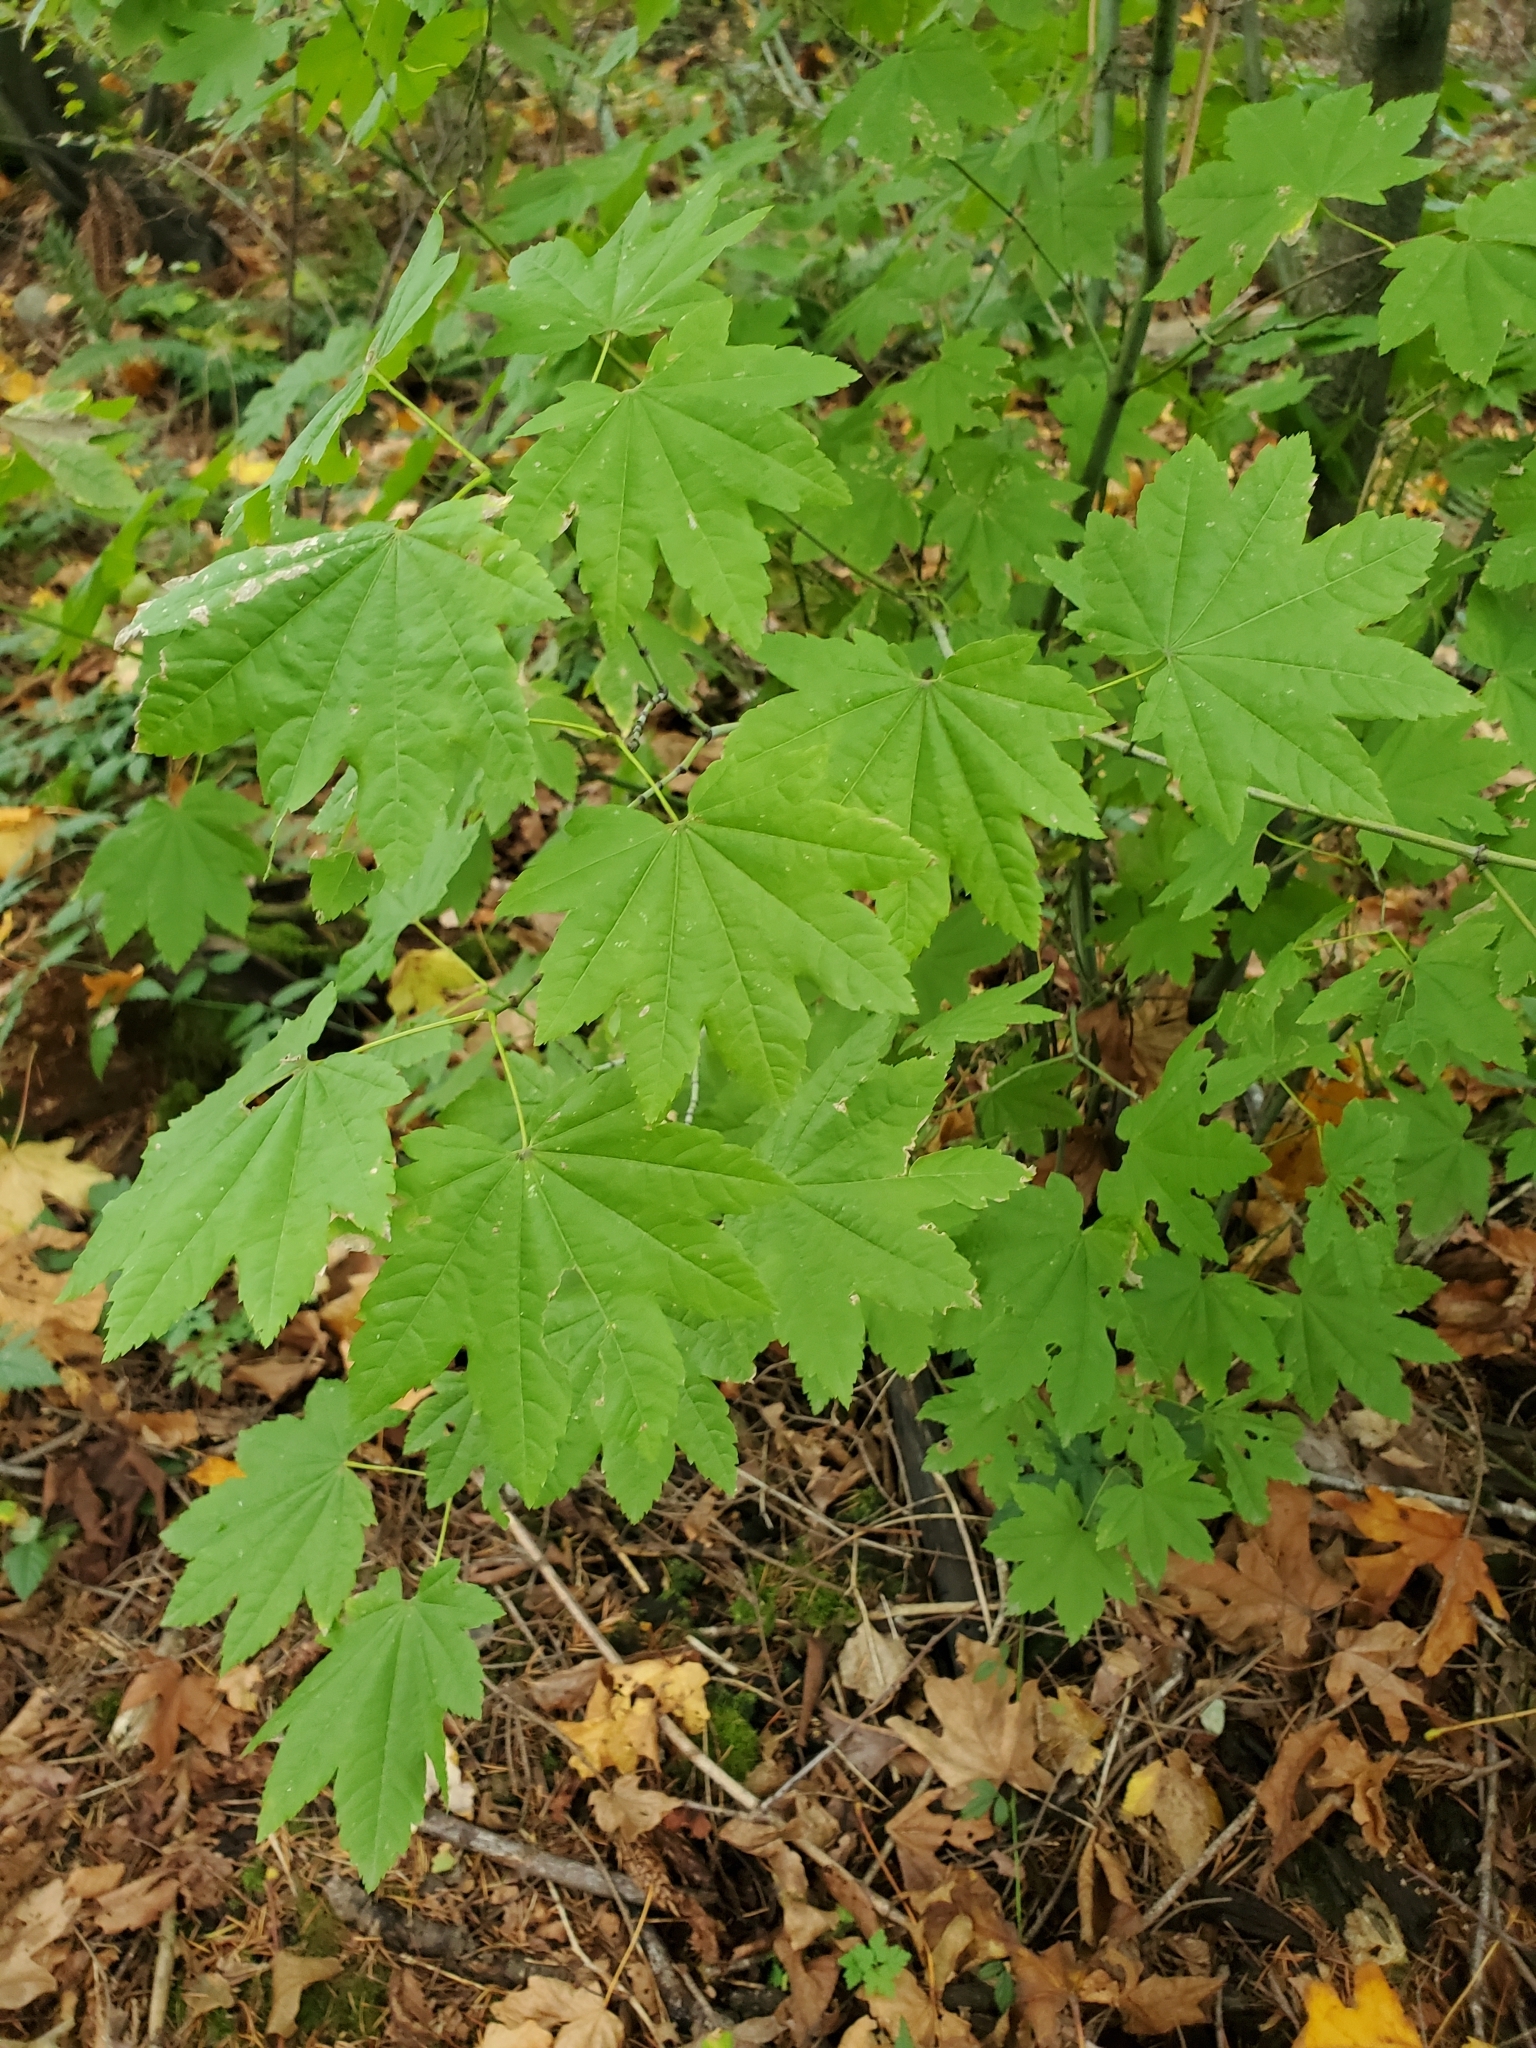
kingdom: Plantae
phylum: Tracheophyta
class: Magnoliopsida
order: Sapindales
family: Sapindaceae
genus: Acer
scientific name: Acer circinatum
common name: Vine maple
